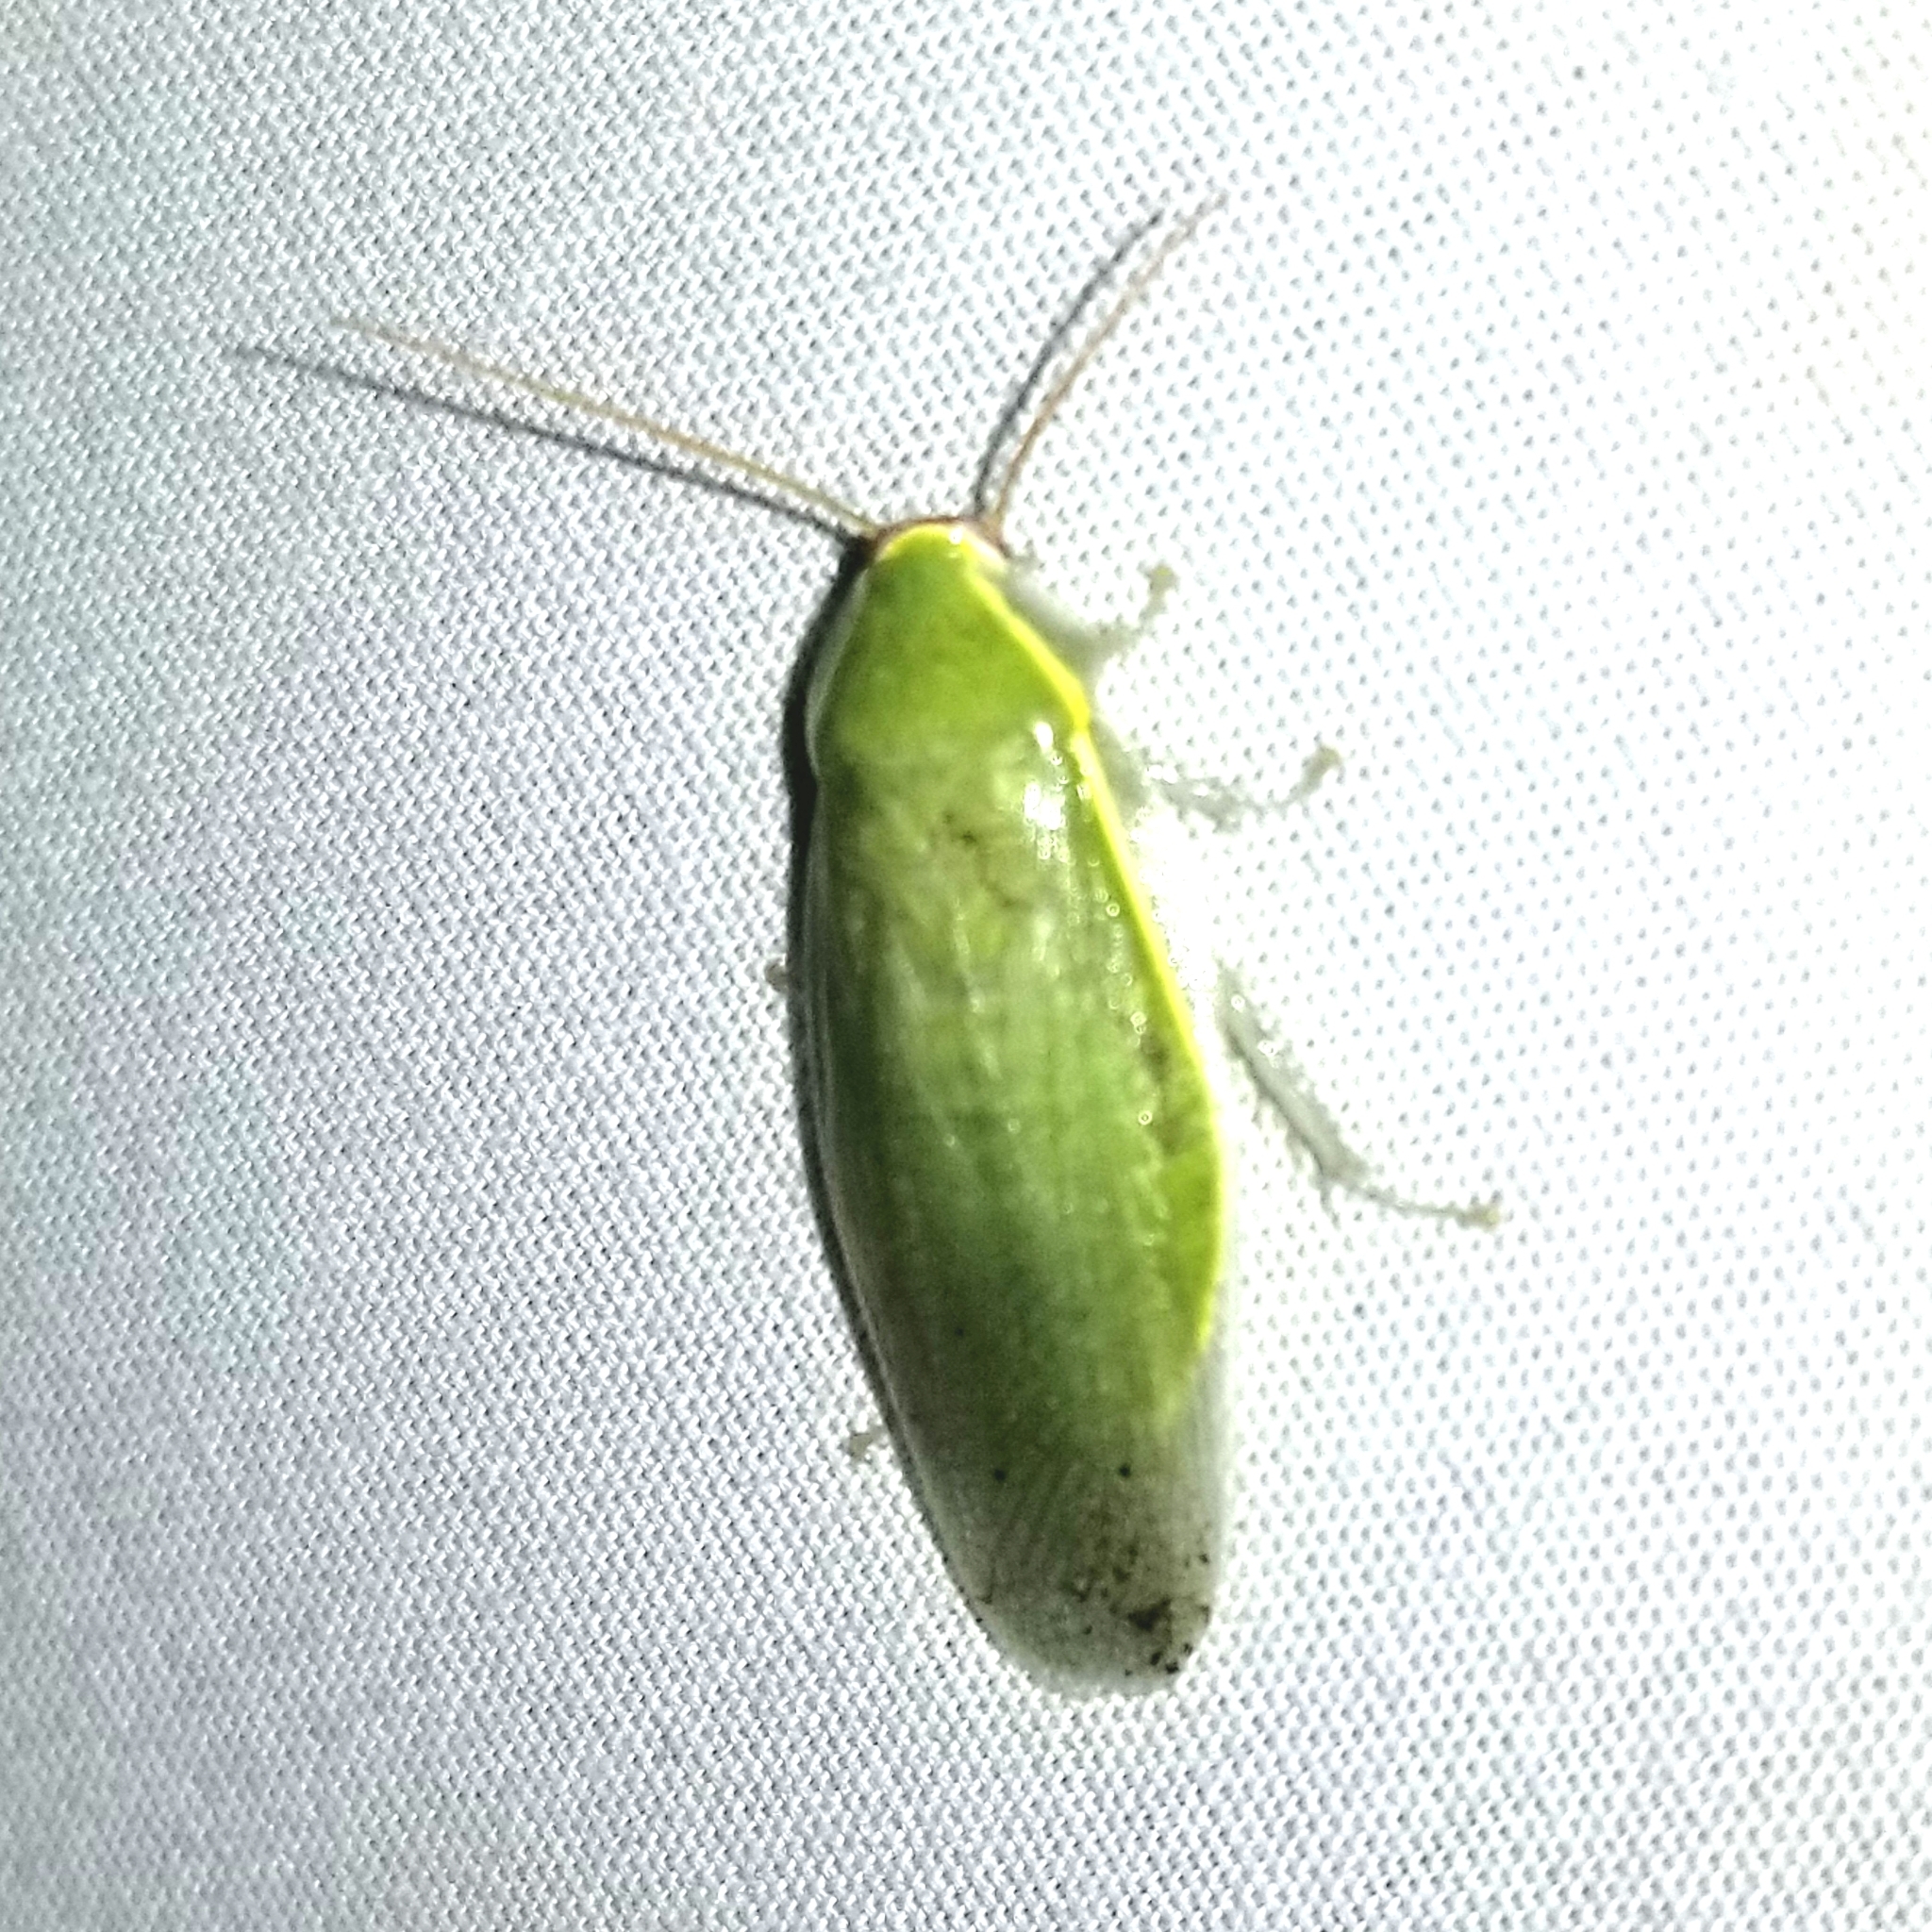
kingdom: Animalia
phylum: Arthropoda
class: Insecta
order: Blattodea
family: Blaberidae
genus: Panchlora
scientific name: Panchlora nivea
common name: Cuban cockroach
